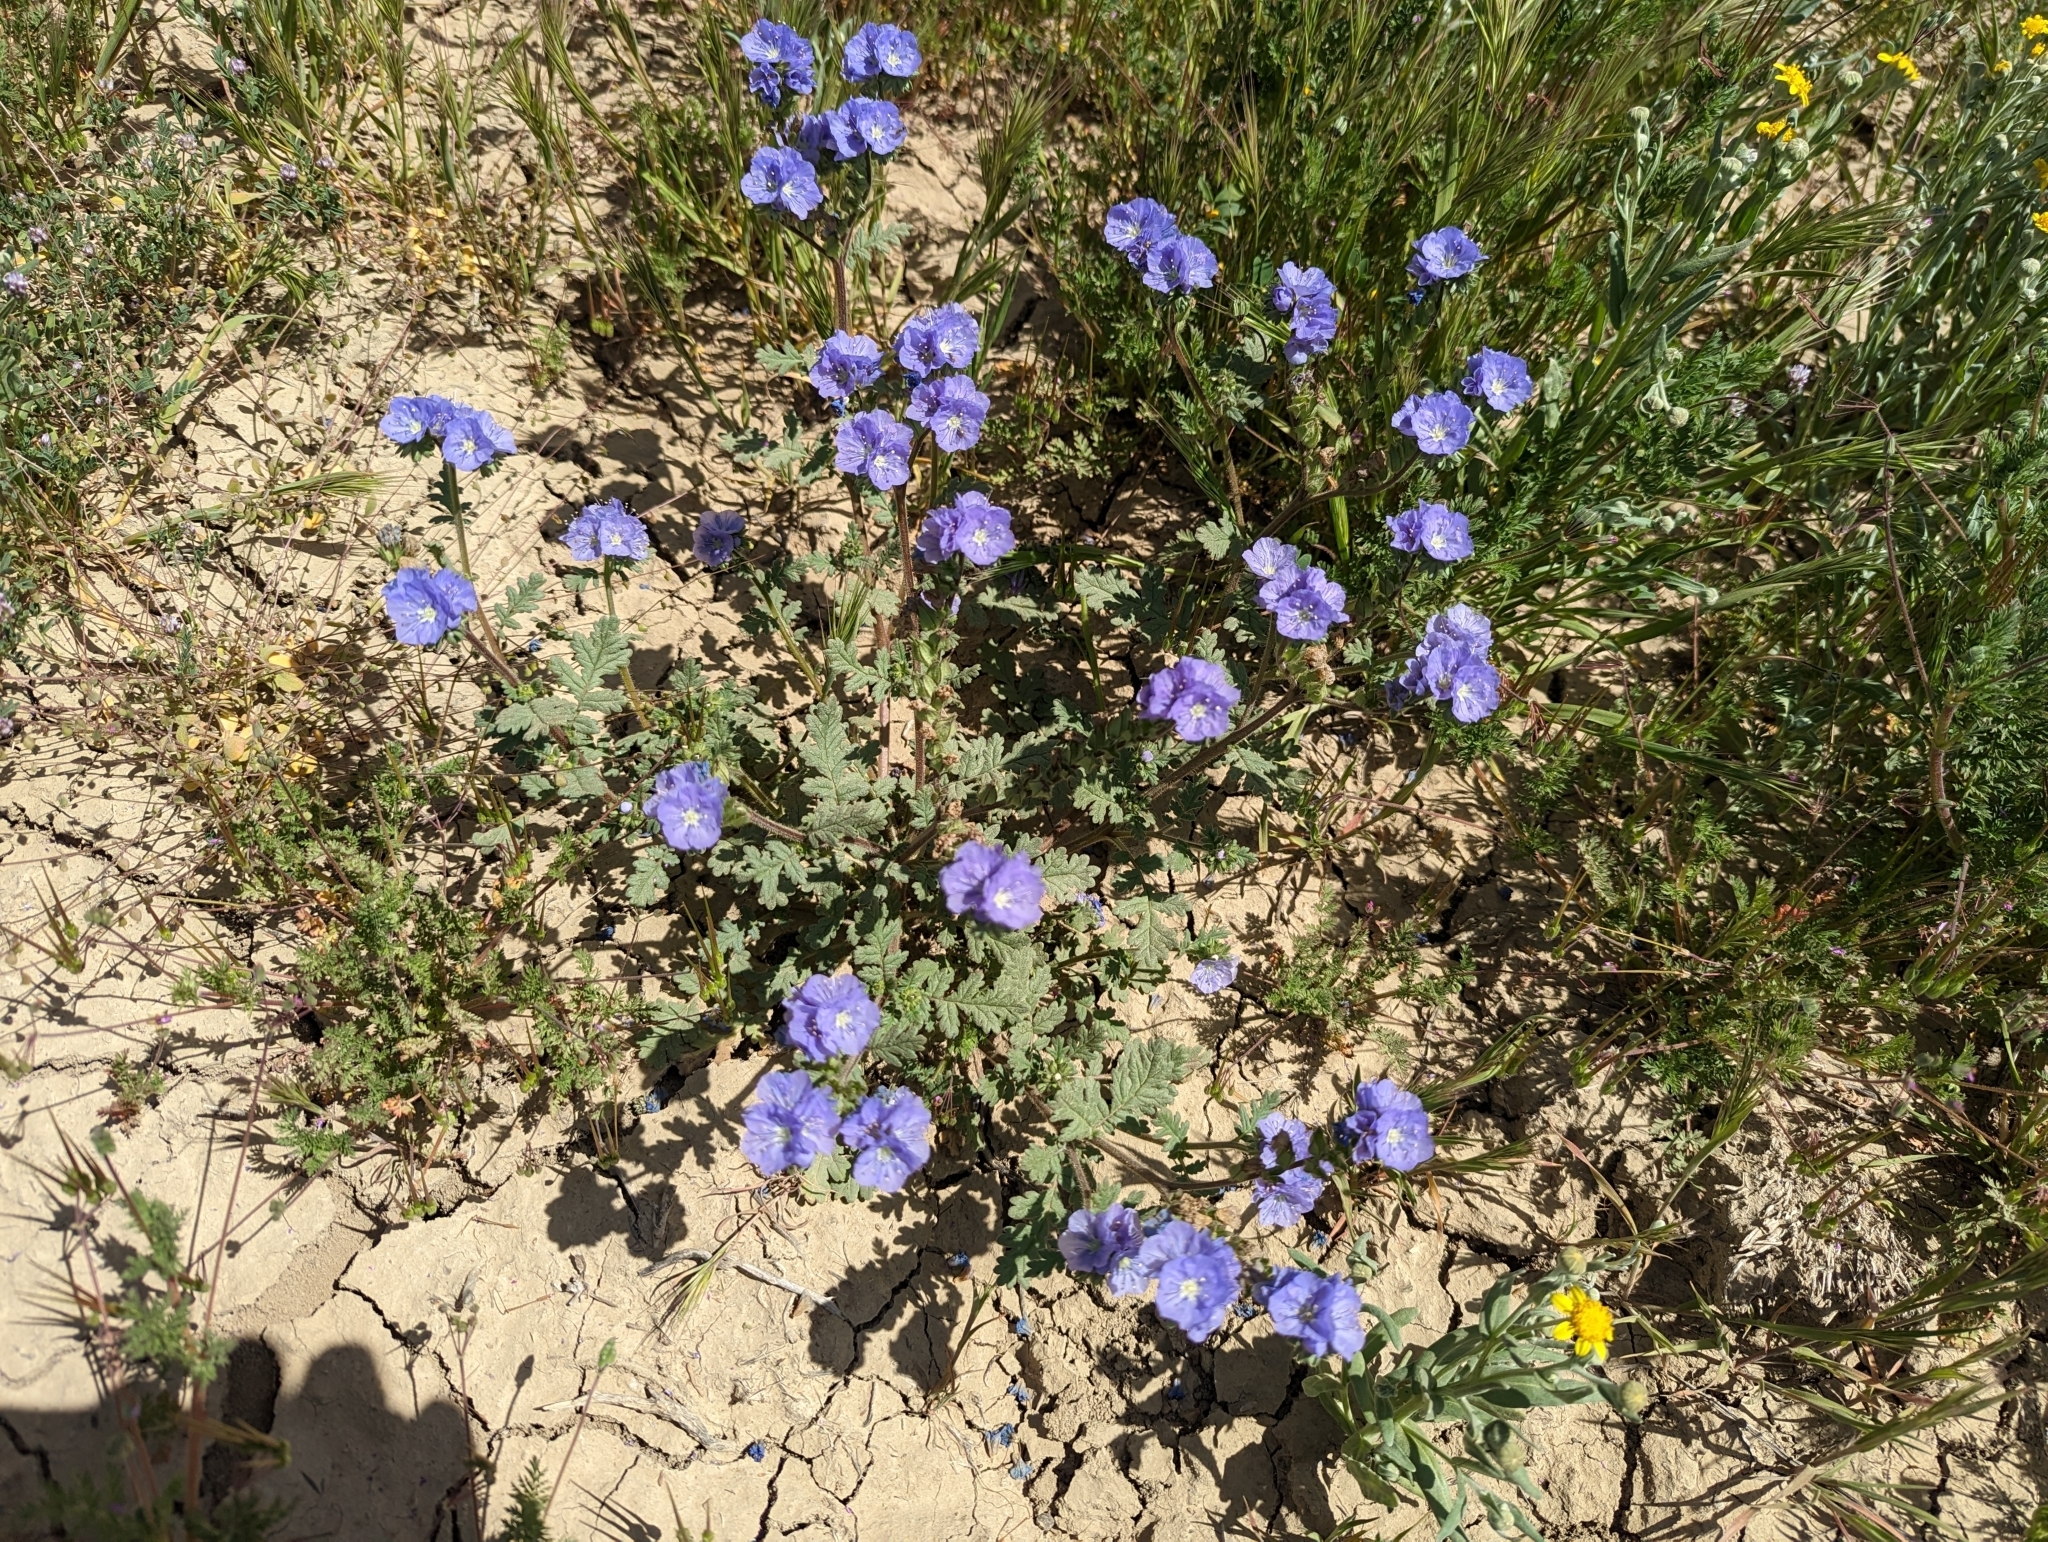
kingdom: Plantae
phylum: Tracheophyta
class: Magnoliopsida
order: Boraginales
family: Hydrophyllaceae
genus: Nemophila
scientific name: Nemophila menziesii
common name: Baby's-blue-eyes
